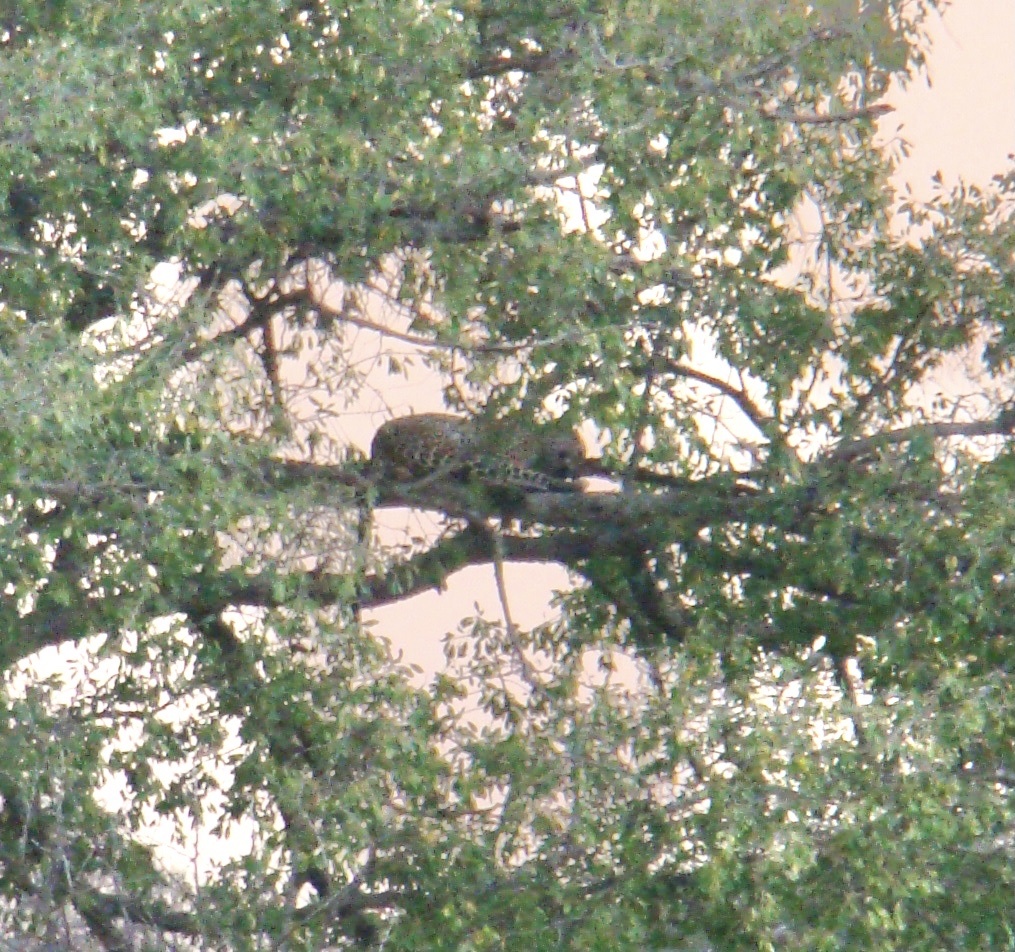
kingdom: Animalia
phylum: Chordata
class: Mammalia
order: Carnivora
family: Felidae
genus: Panthera
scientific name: Panthera pardus
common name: Leopard
